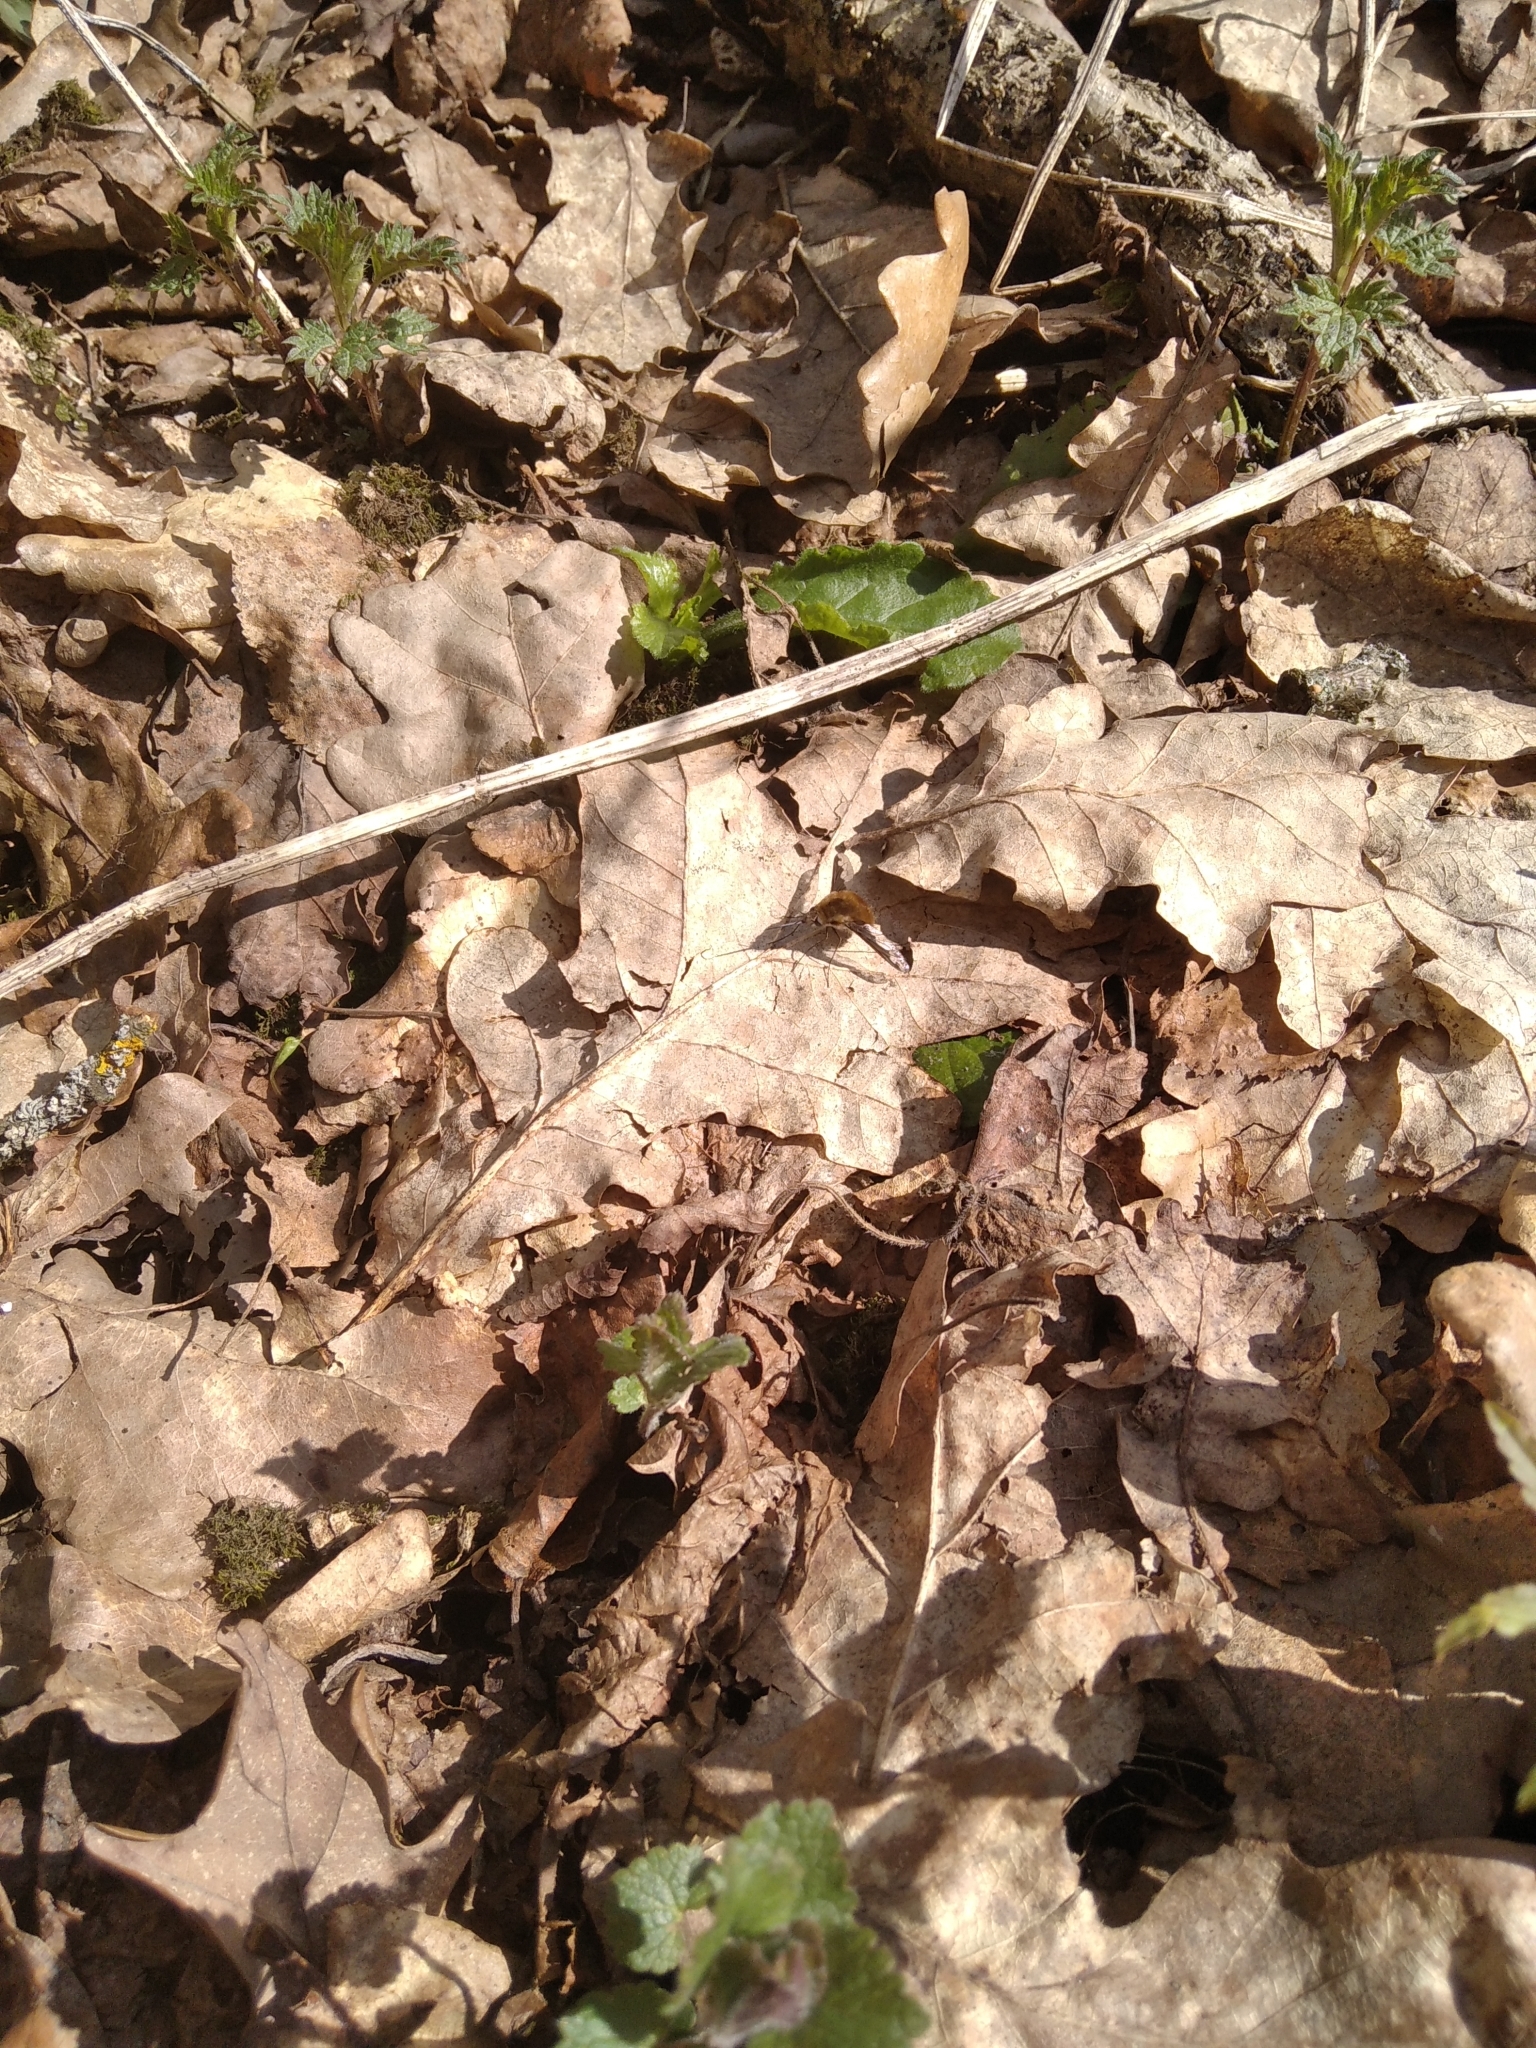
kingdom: Animalia
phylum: Arthropoda
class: Insecta
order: Diptera
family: Bombyliidae
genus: Bombylius
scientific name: Bombylius major
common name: Bee fly
